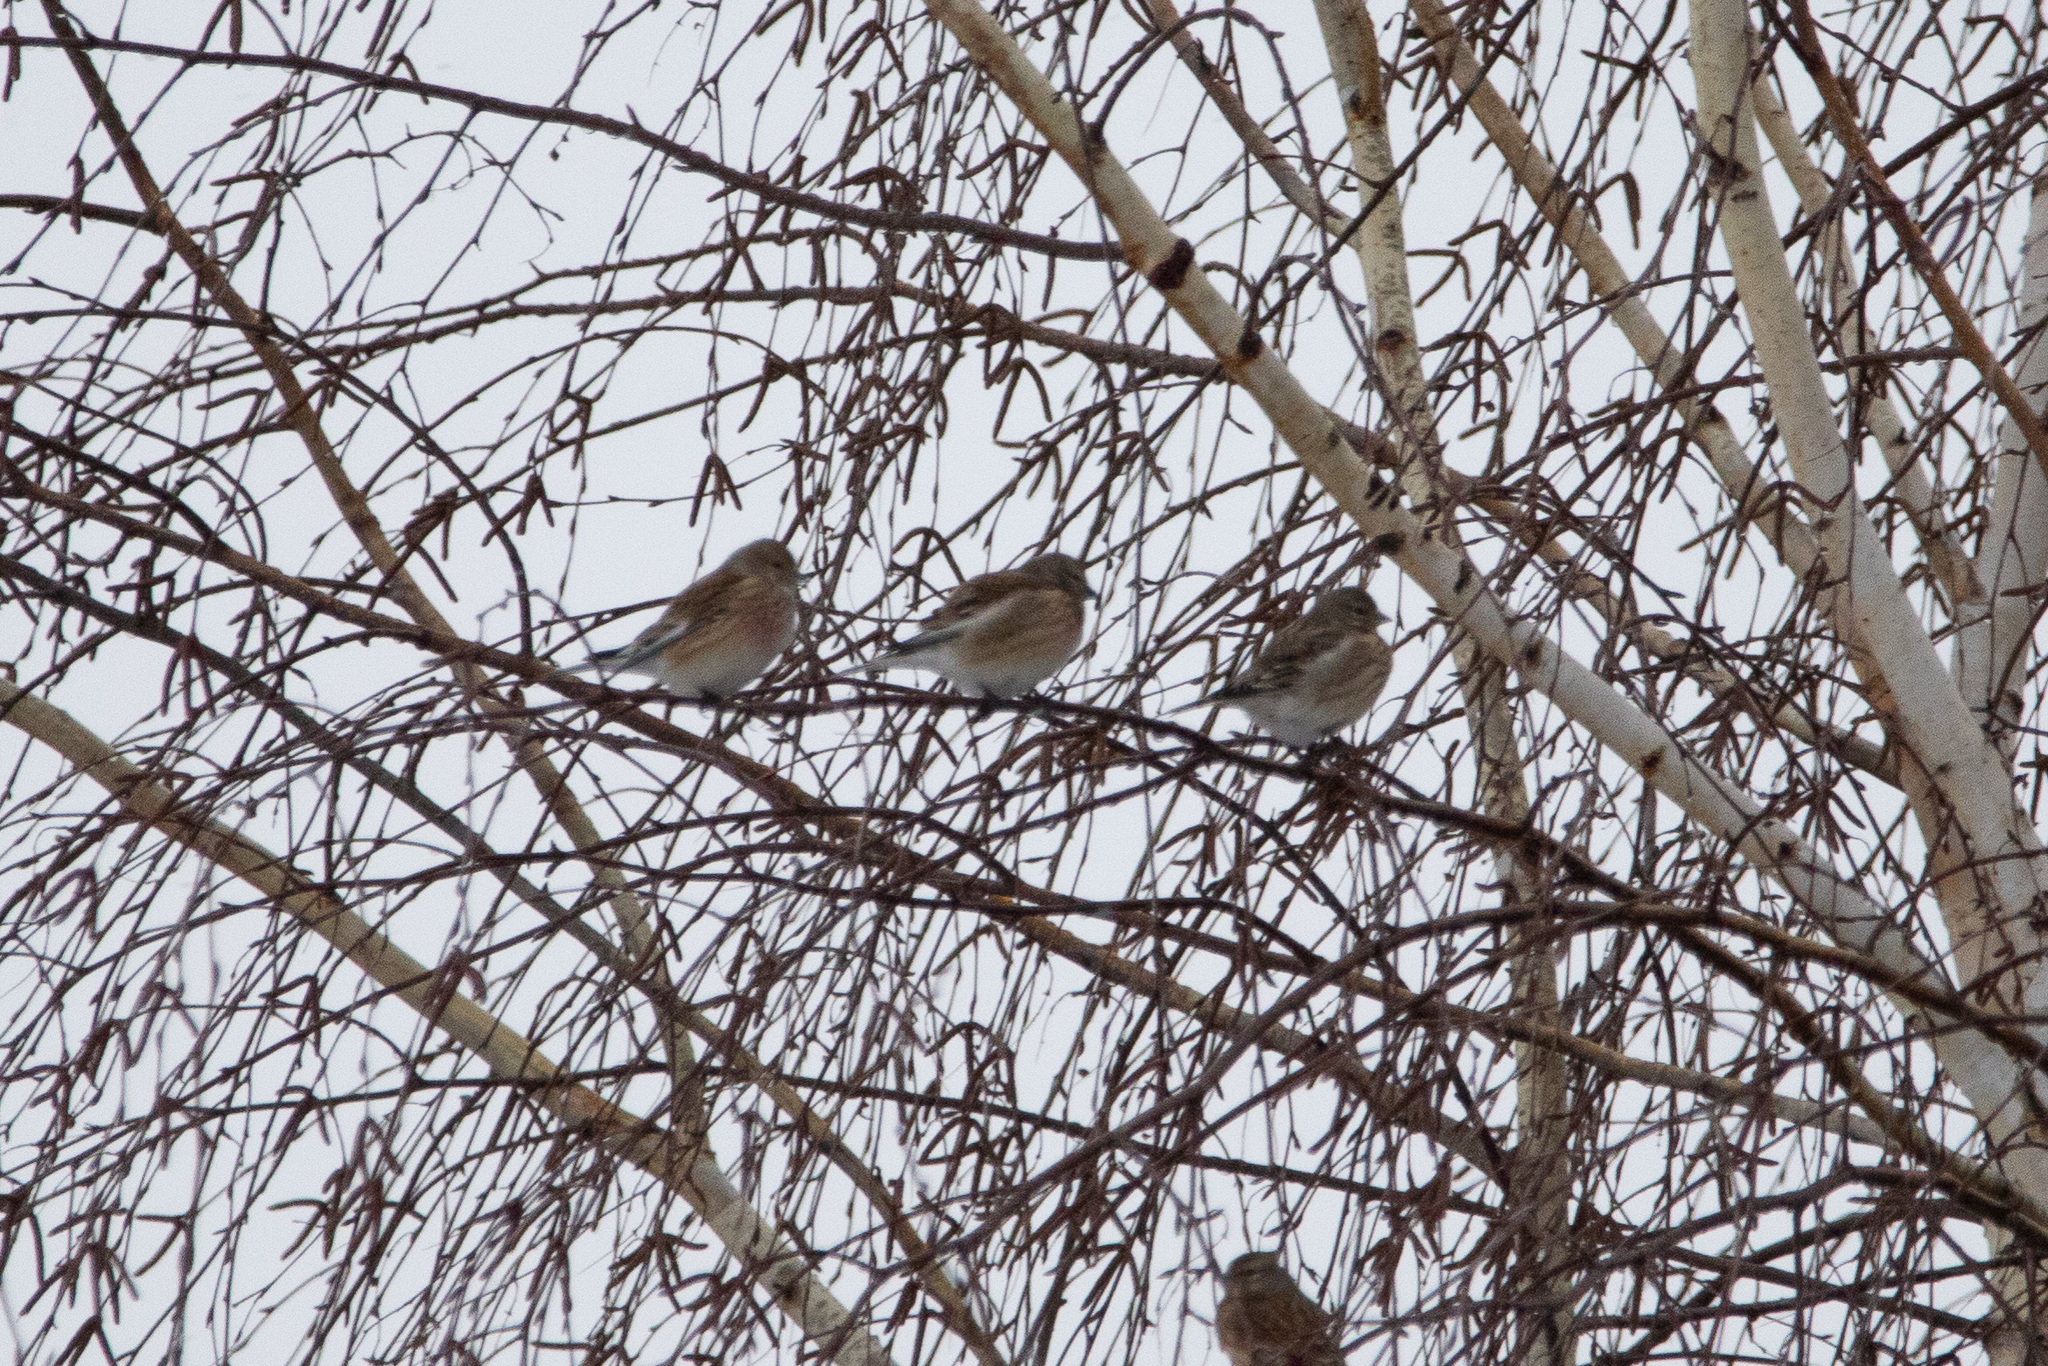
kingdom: Animalia
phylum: Chordata
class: Aves
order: Passeriformes
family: Fringillidae
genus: Linaria
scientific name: Linaria cannabina
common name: Common linnet
